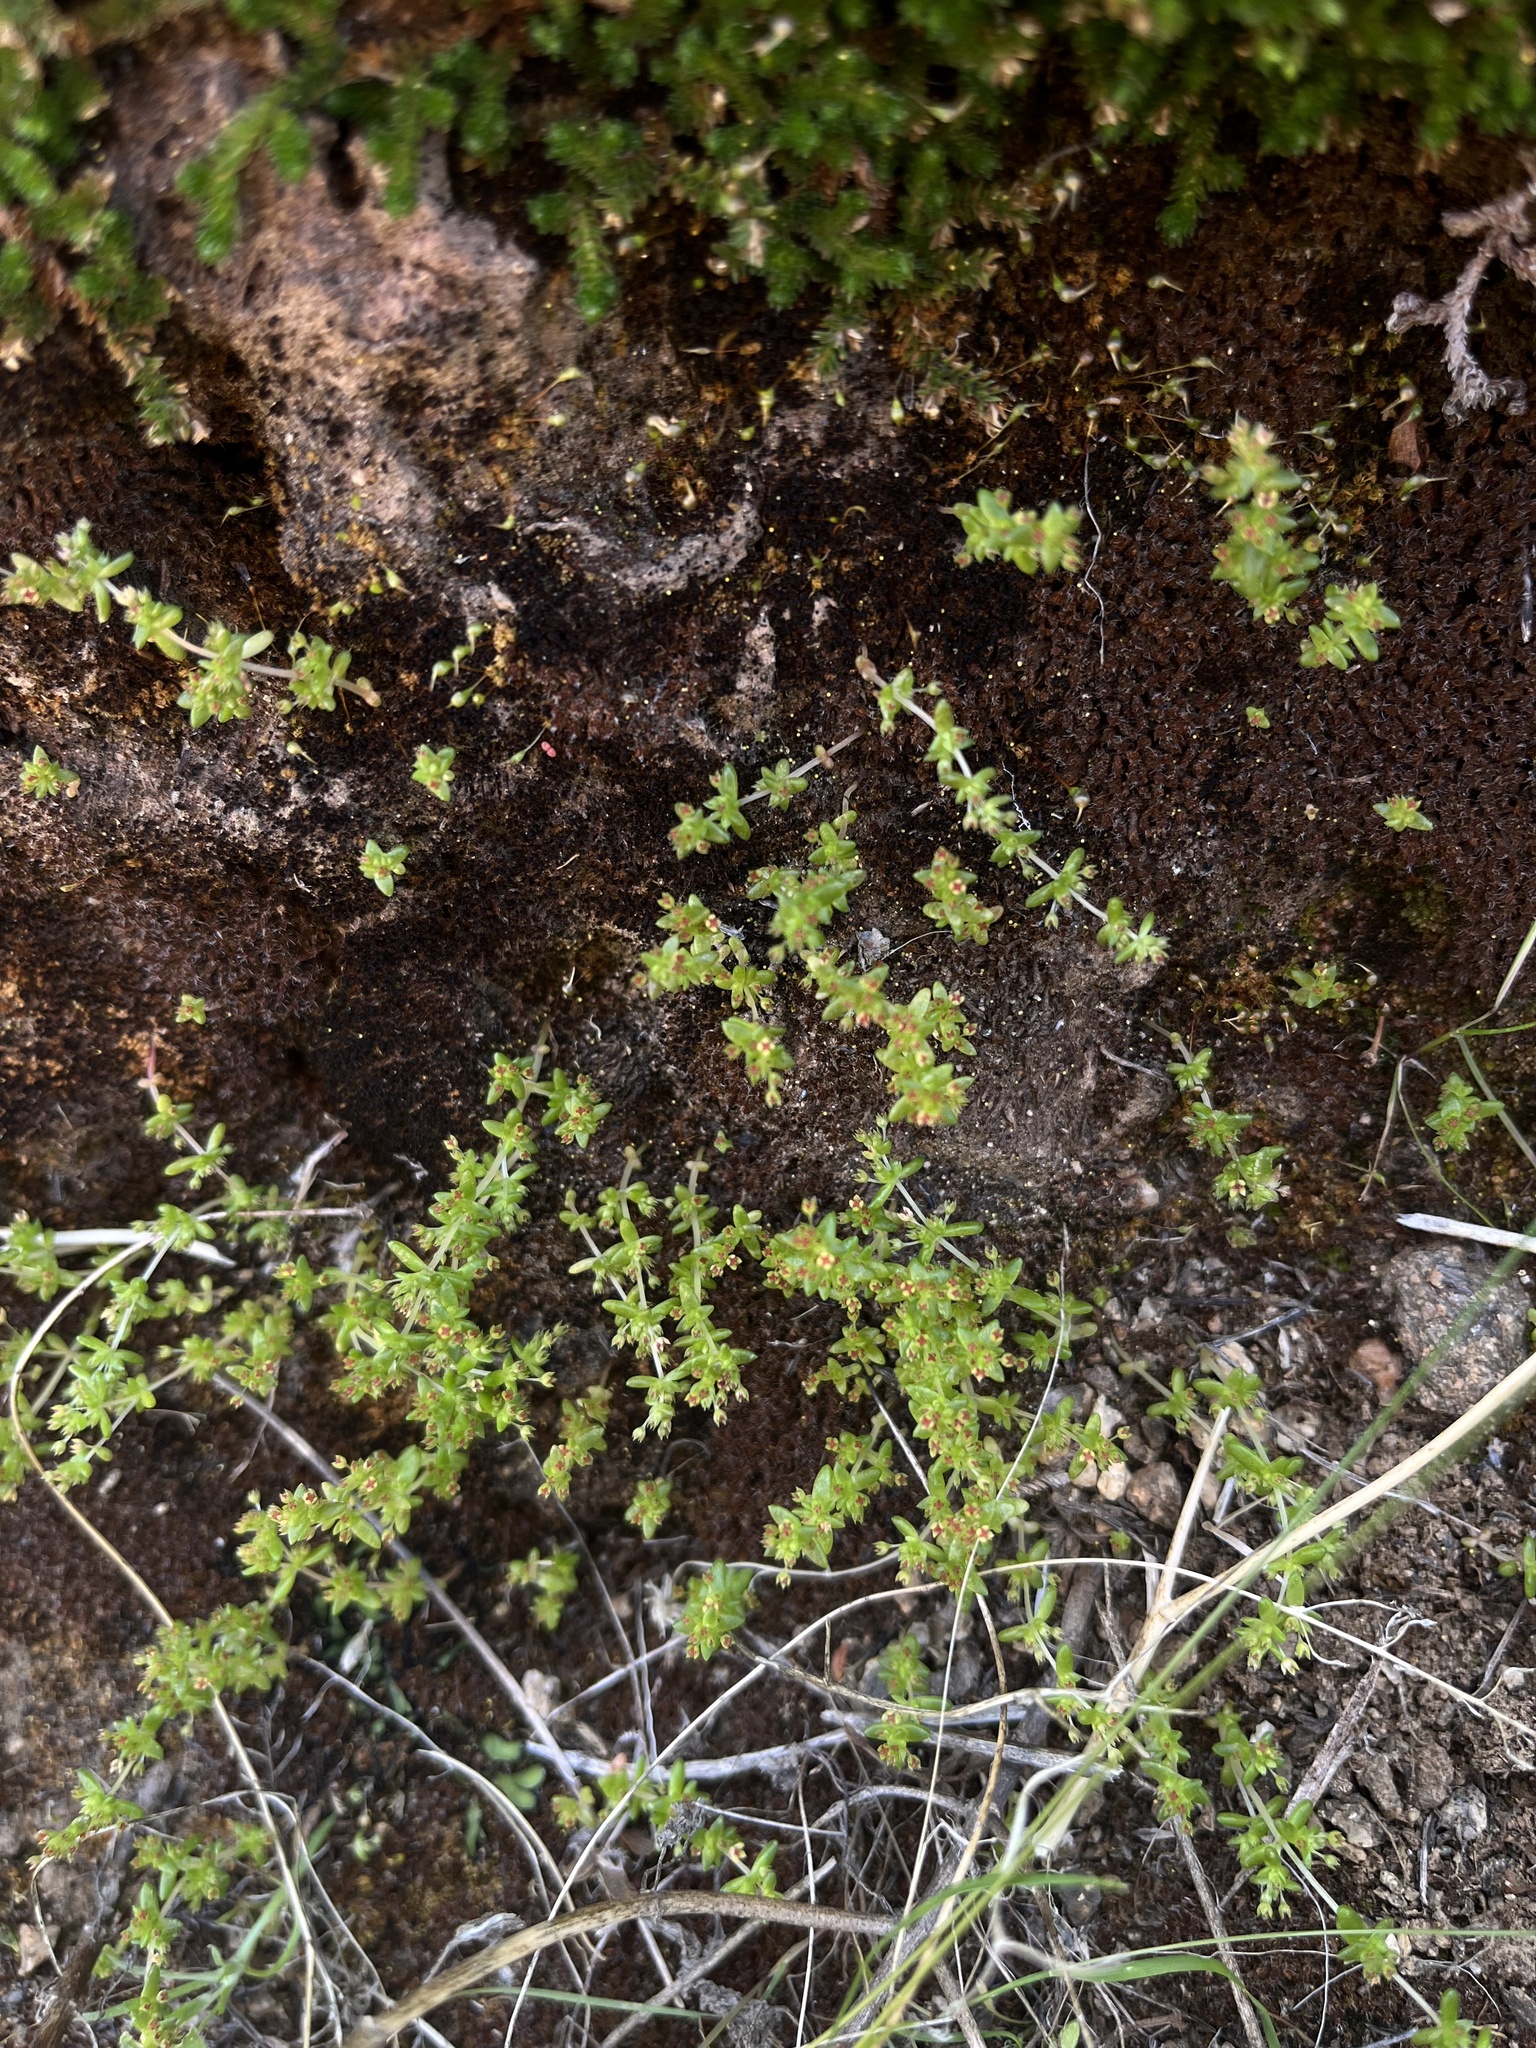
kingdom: Plantae
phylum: Tracheophyta
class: Magnoliopsida
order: Saxifragales
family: Crassulaceae
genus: Crassula
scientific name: Crassula connata
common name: Erect pygmyweed
